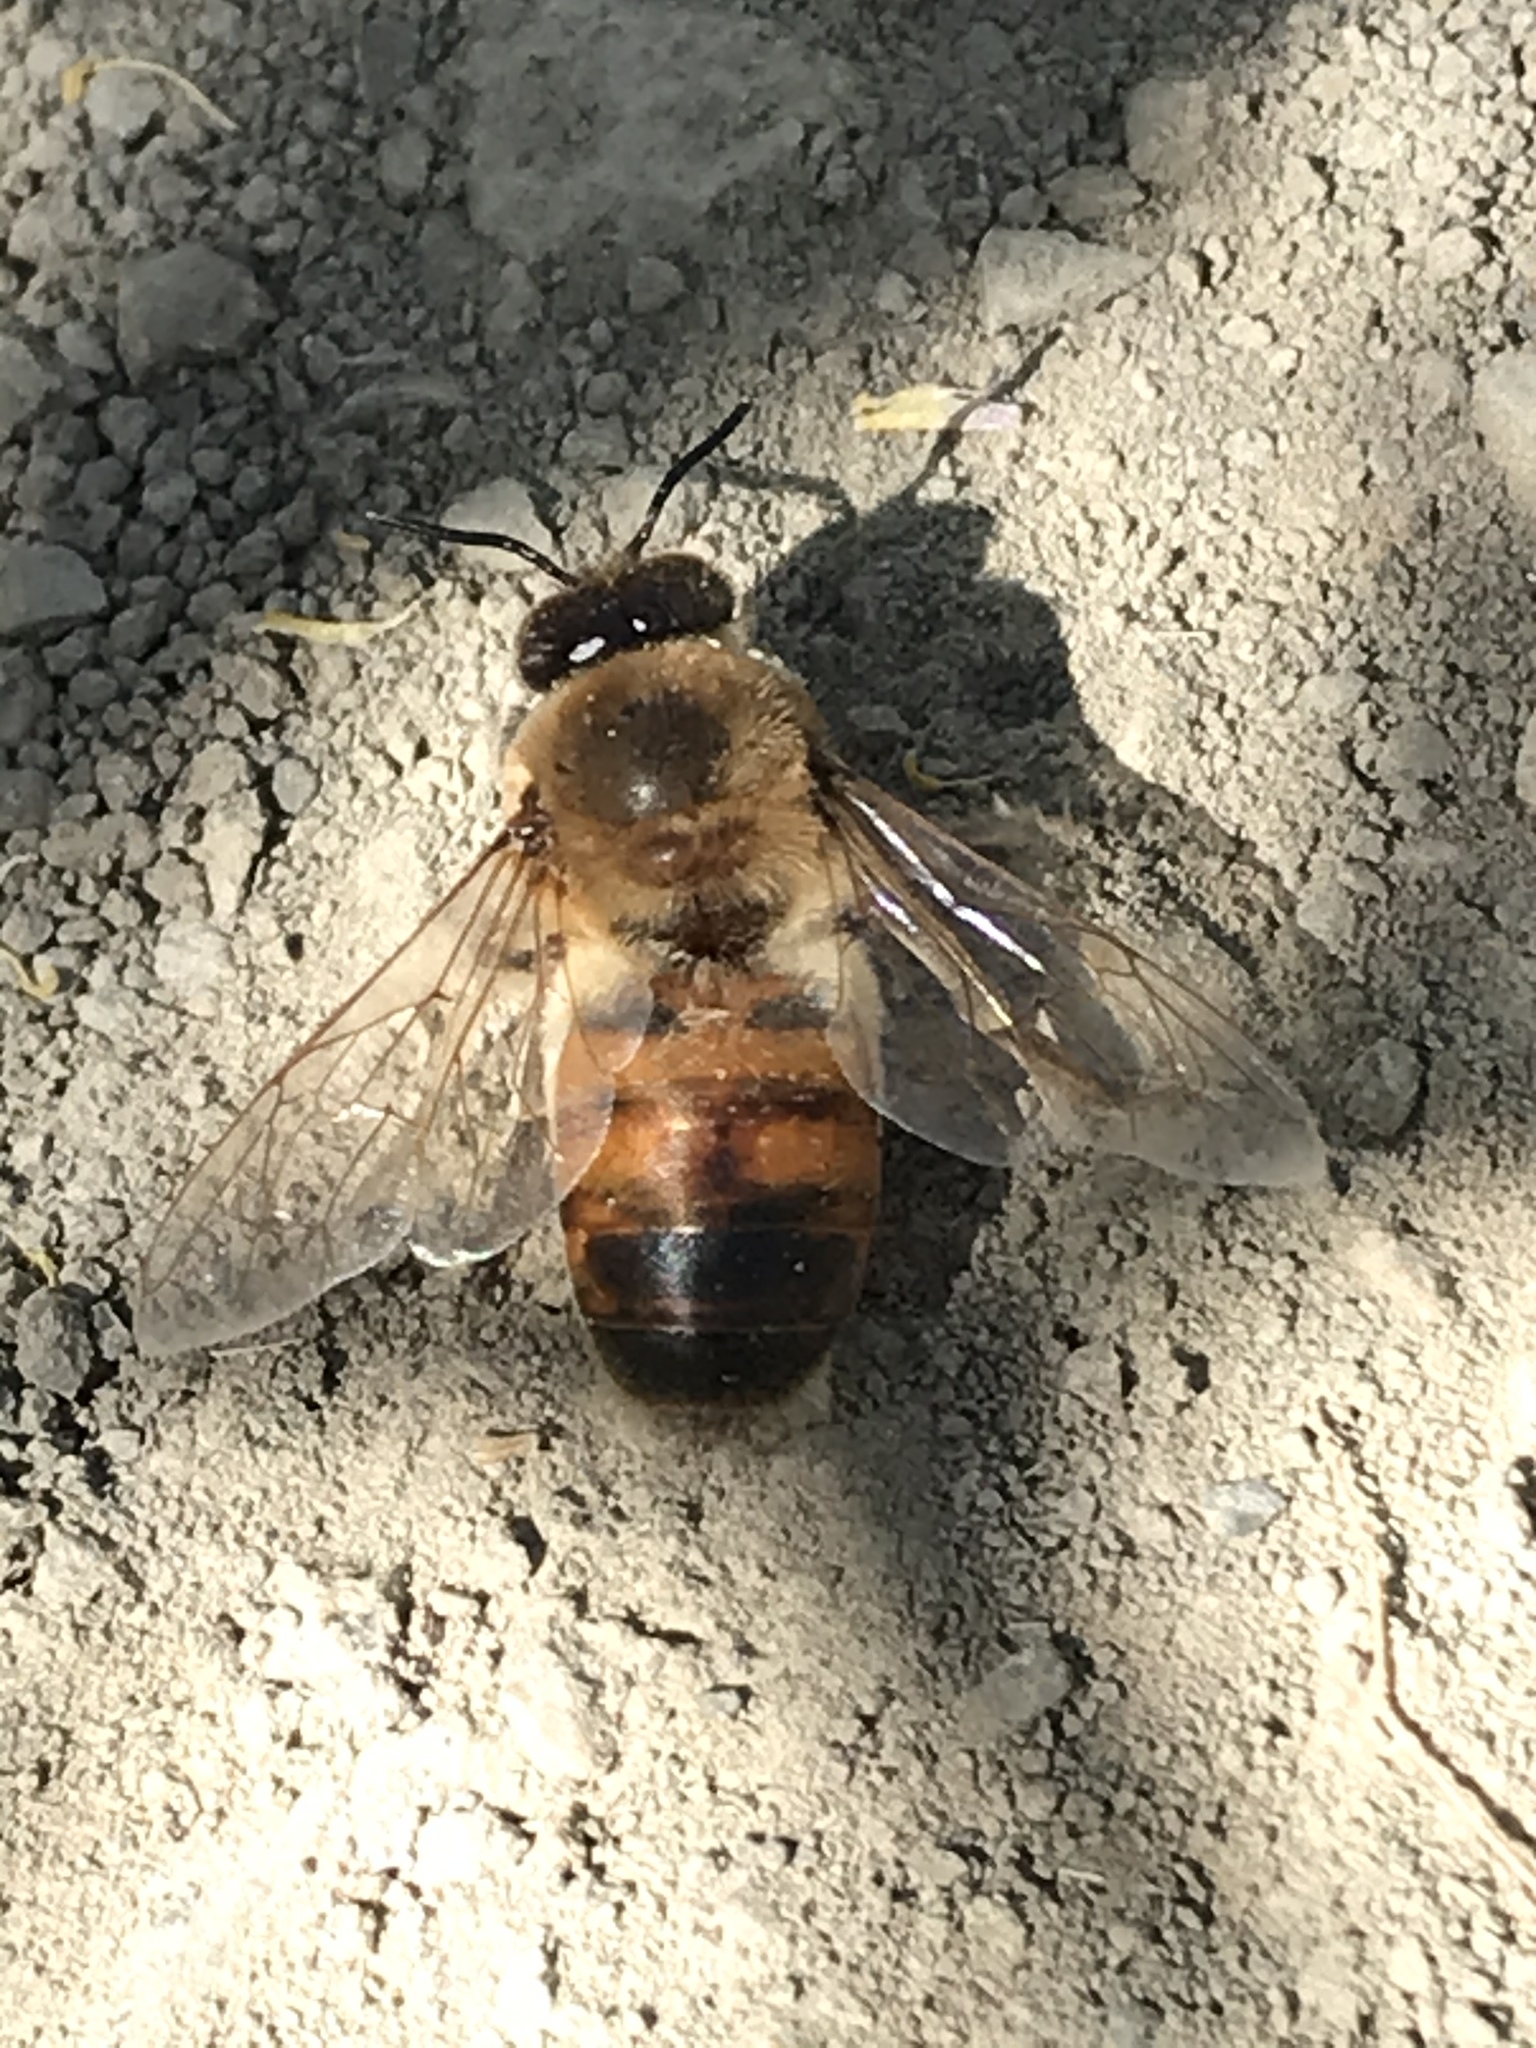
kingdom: Animalia
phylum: Arthropoda
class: Insecta
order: Hymenoptera
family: Apidae
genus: Apis
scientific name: Apis mellifera
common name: Honey bee
